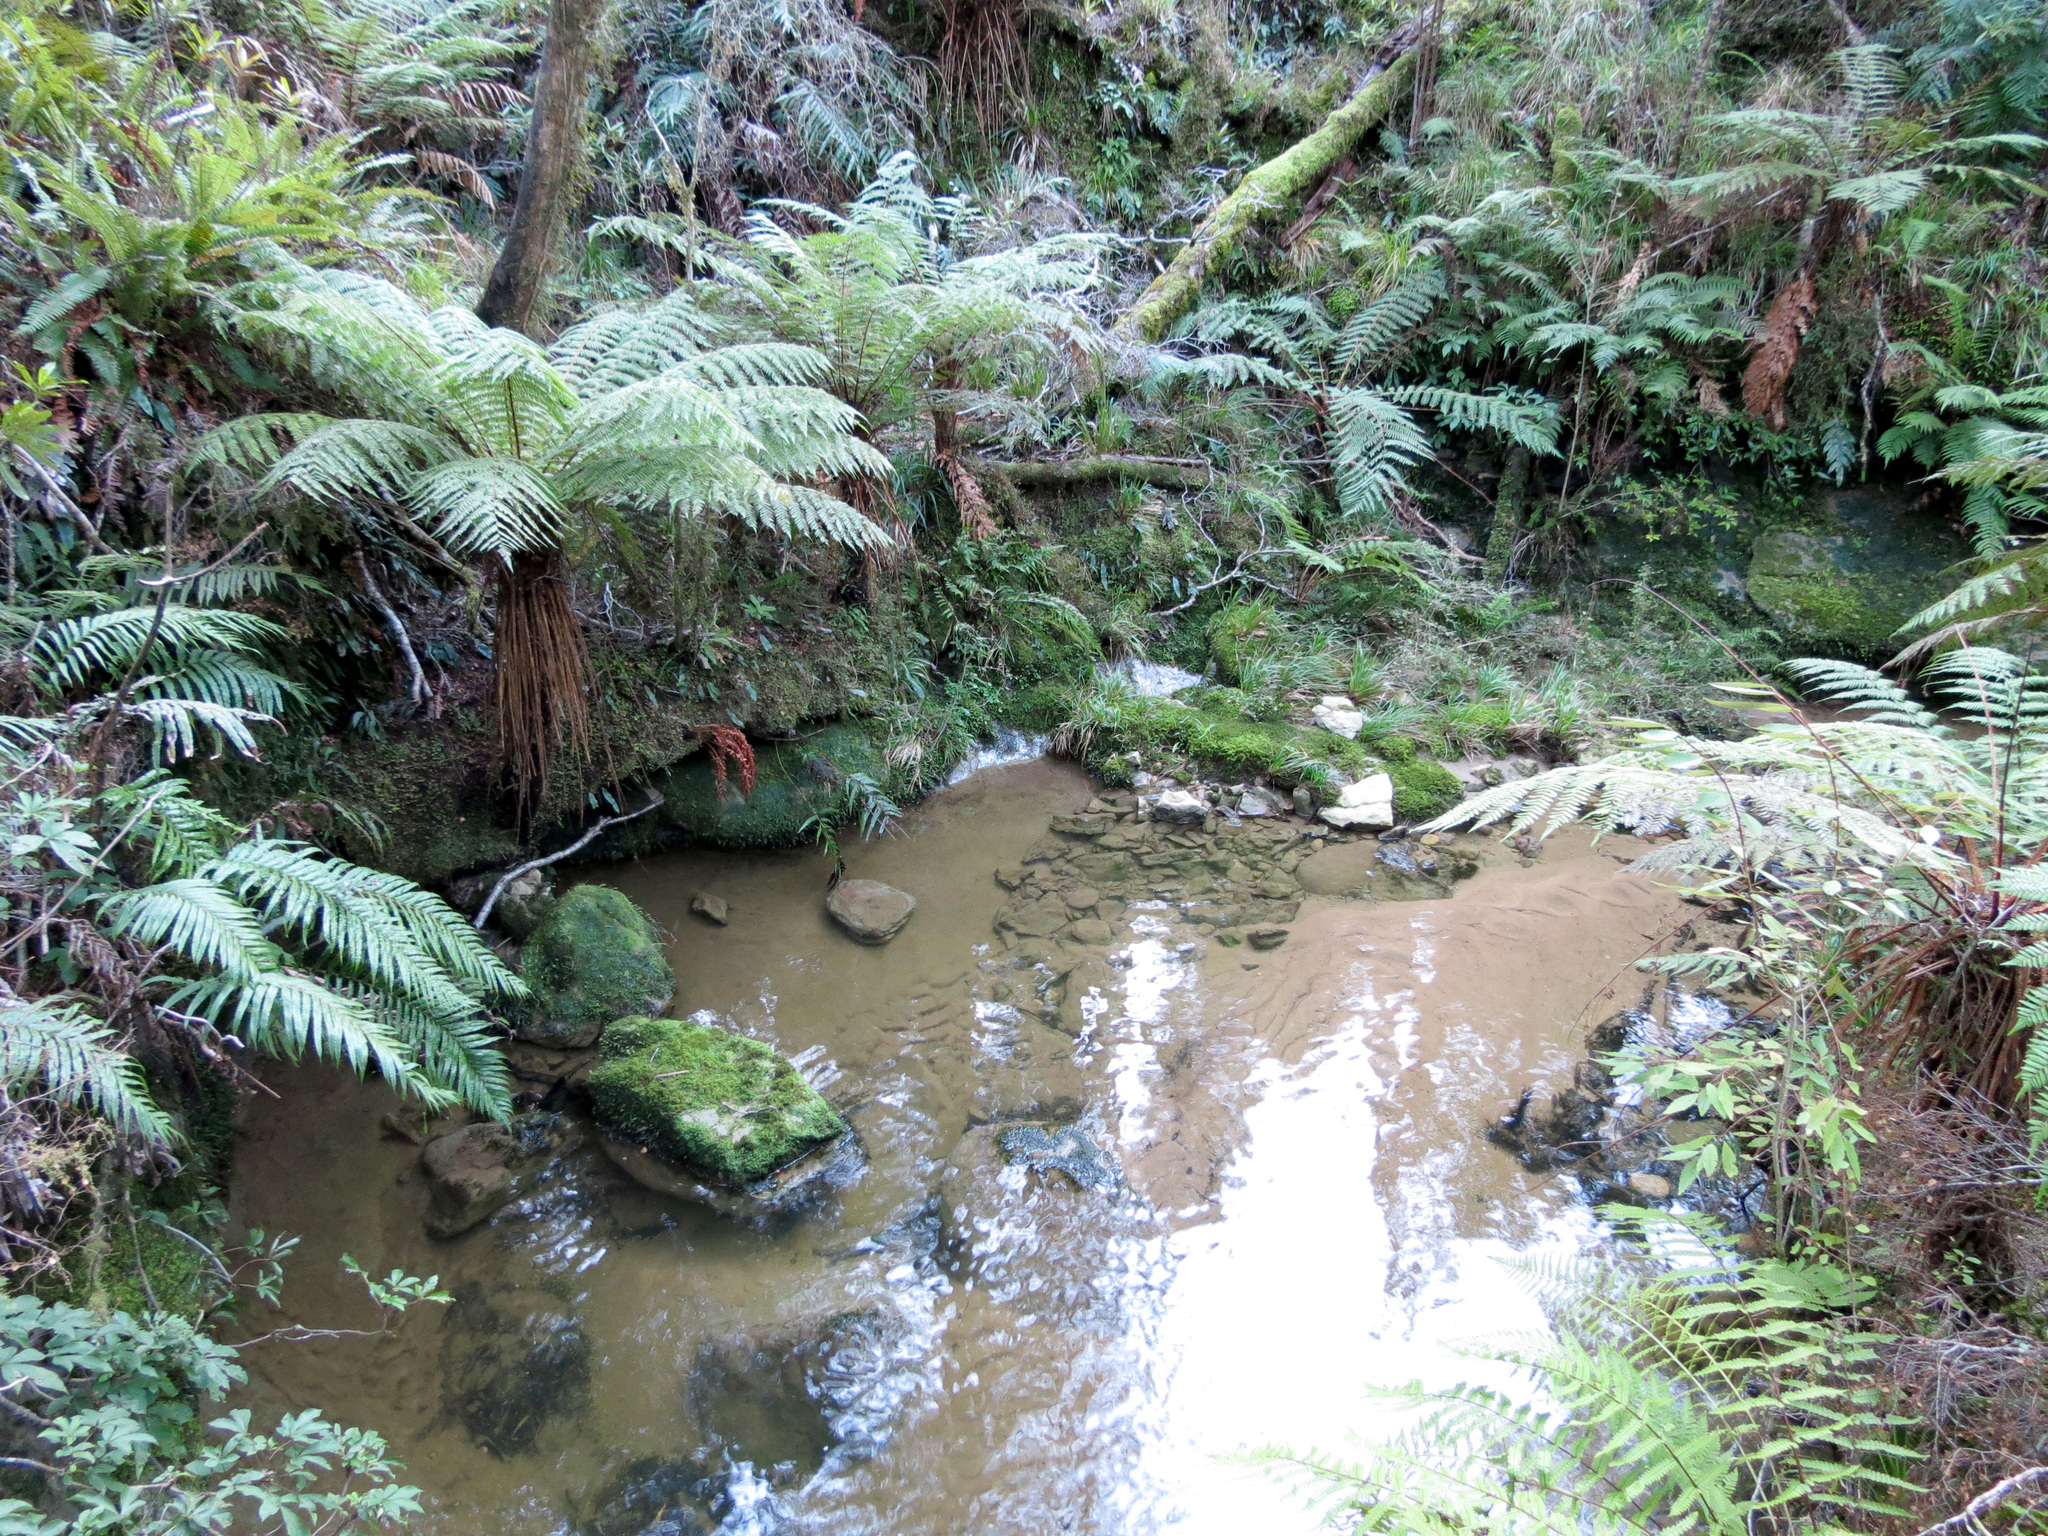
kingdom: Plantae
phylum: Tracheophyta
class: Polypodiopsida
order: Cyatheales
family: Cyatheaceae
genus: Alsophila
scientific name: Alsophila smithii
